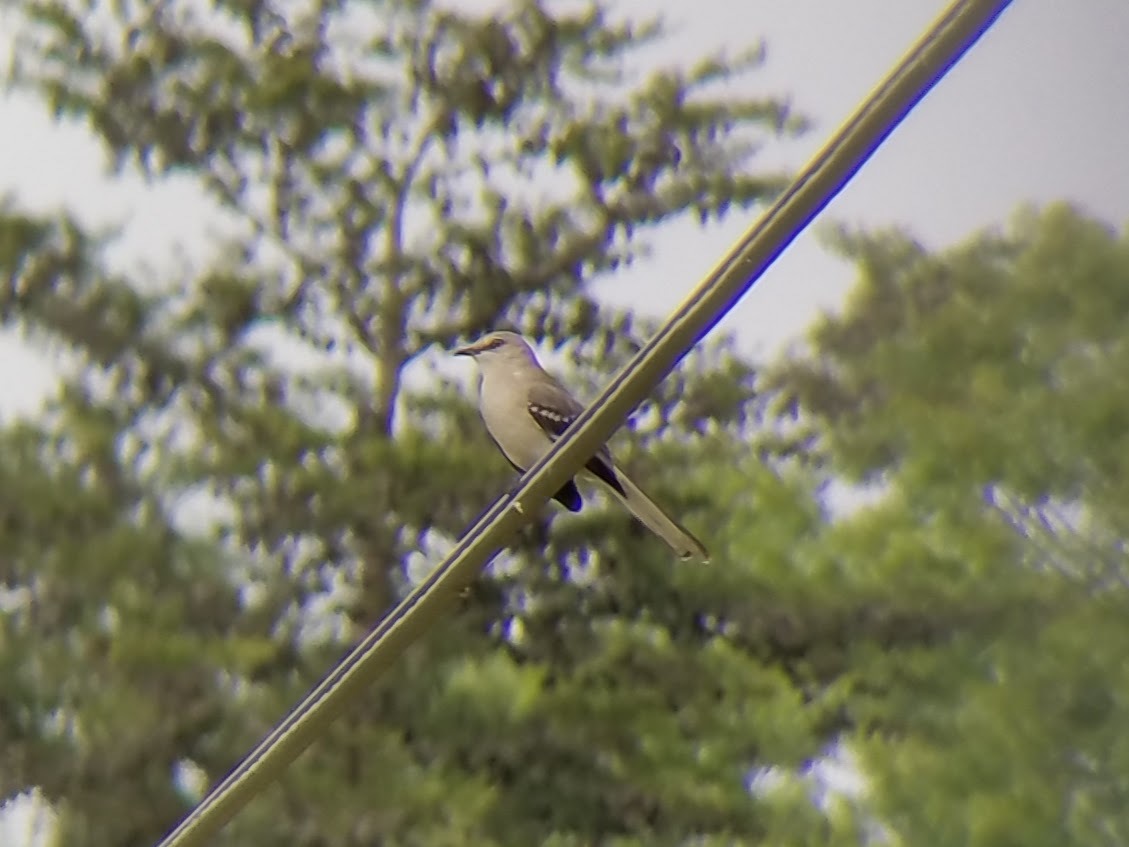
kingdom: Animalia
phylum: Chordata
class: Aves
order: Passeriformes
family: Mimidae
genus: Mimus
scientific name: Mimus polyglottos
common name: Northern mockingbird
